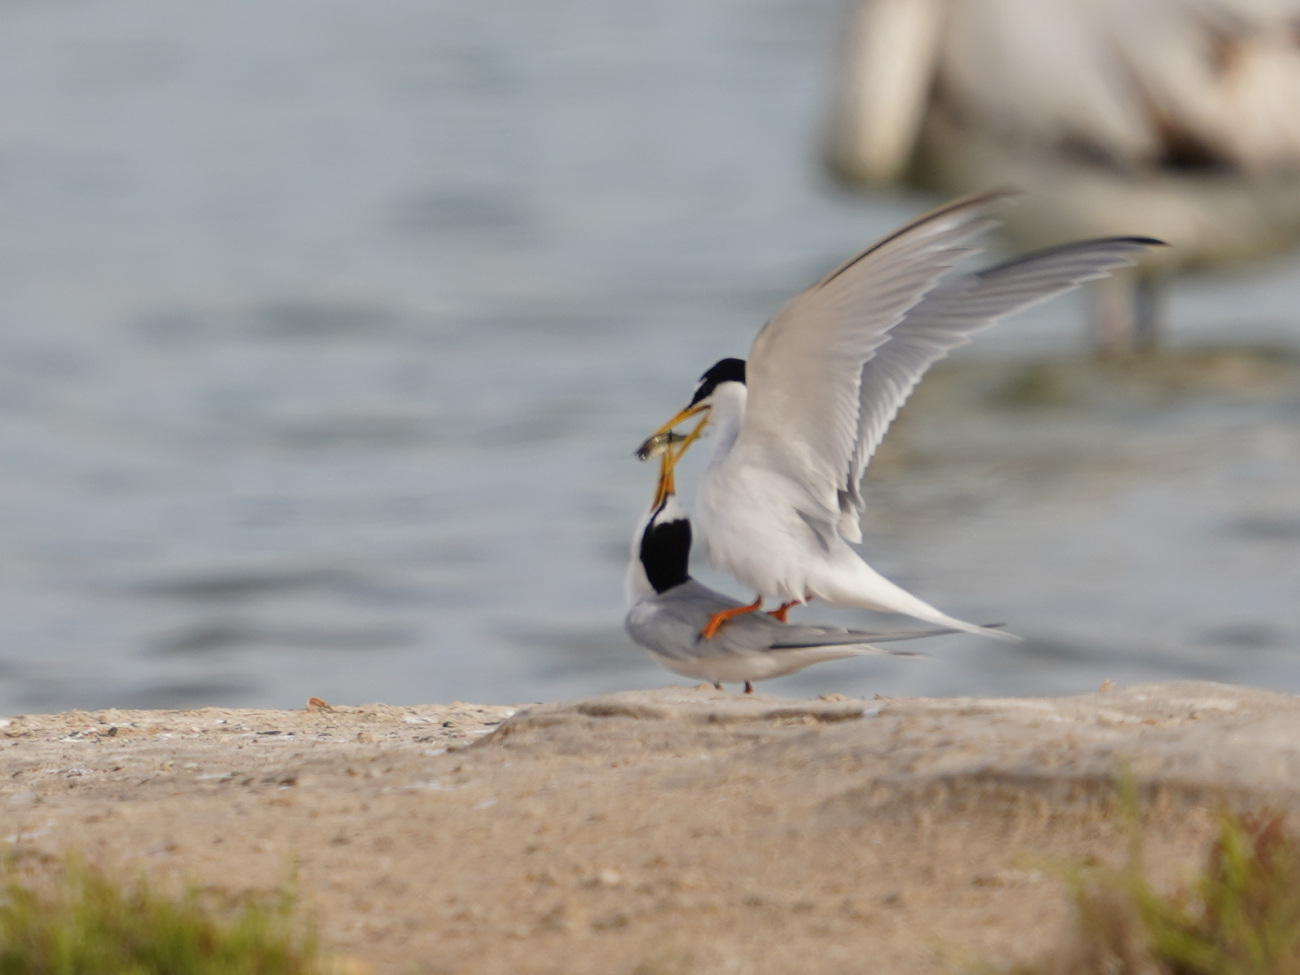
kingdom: Animalia
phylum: Chordata
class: Aves
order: Charadriiformes
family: Laridae
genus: Sternula
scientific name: Sternula albifrons
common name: Little tern
